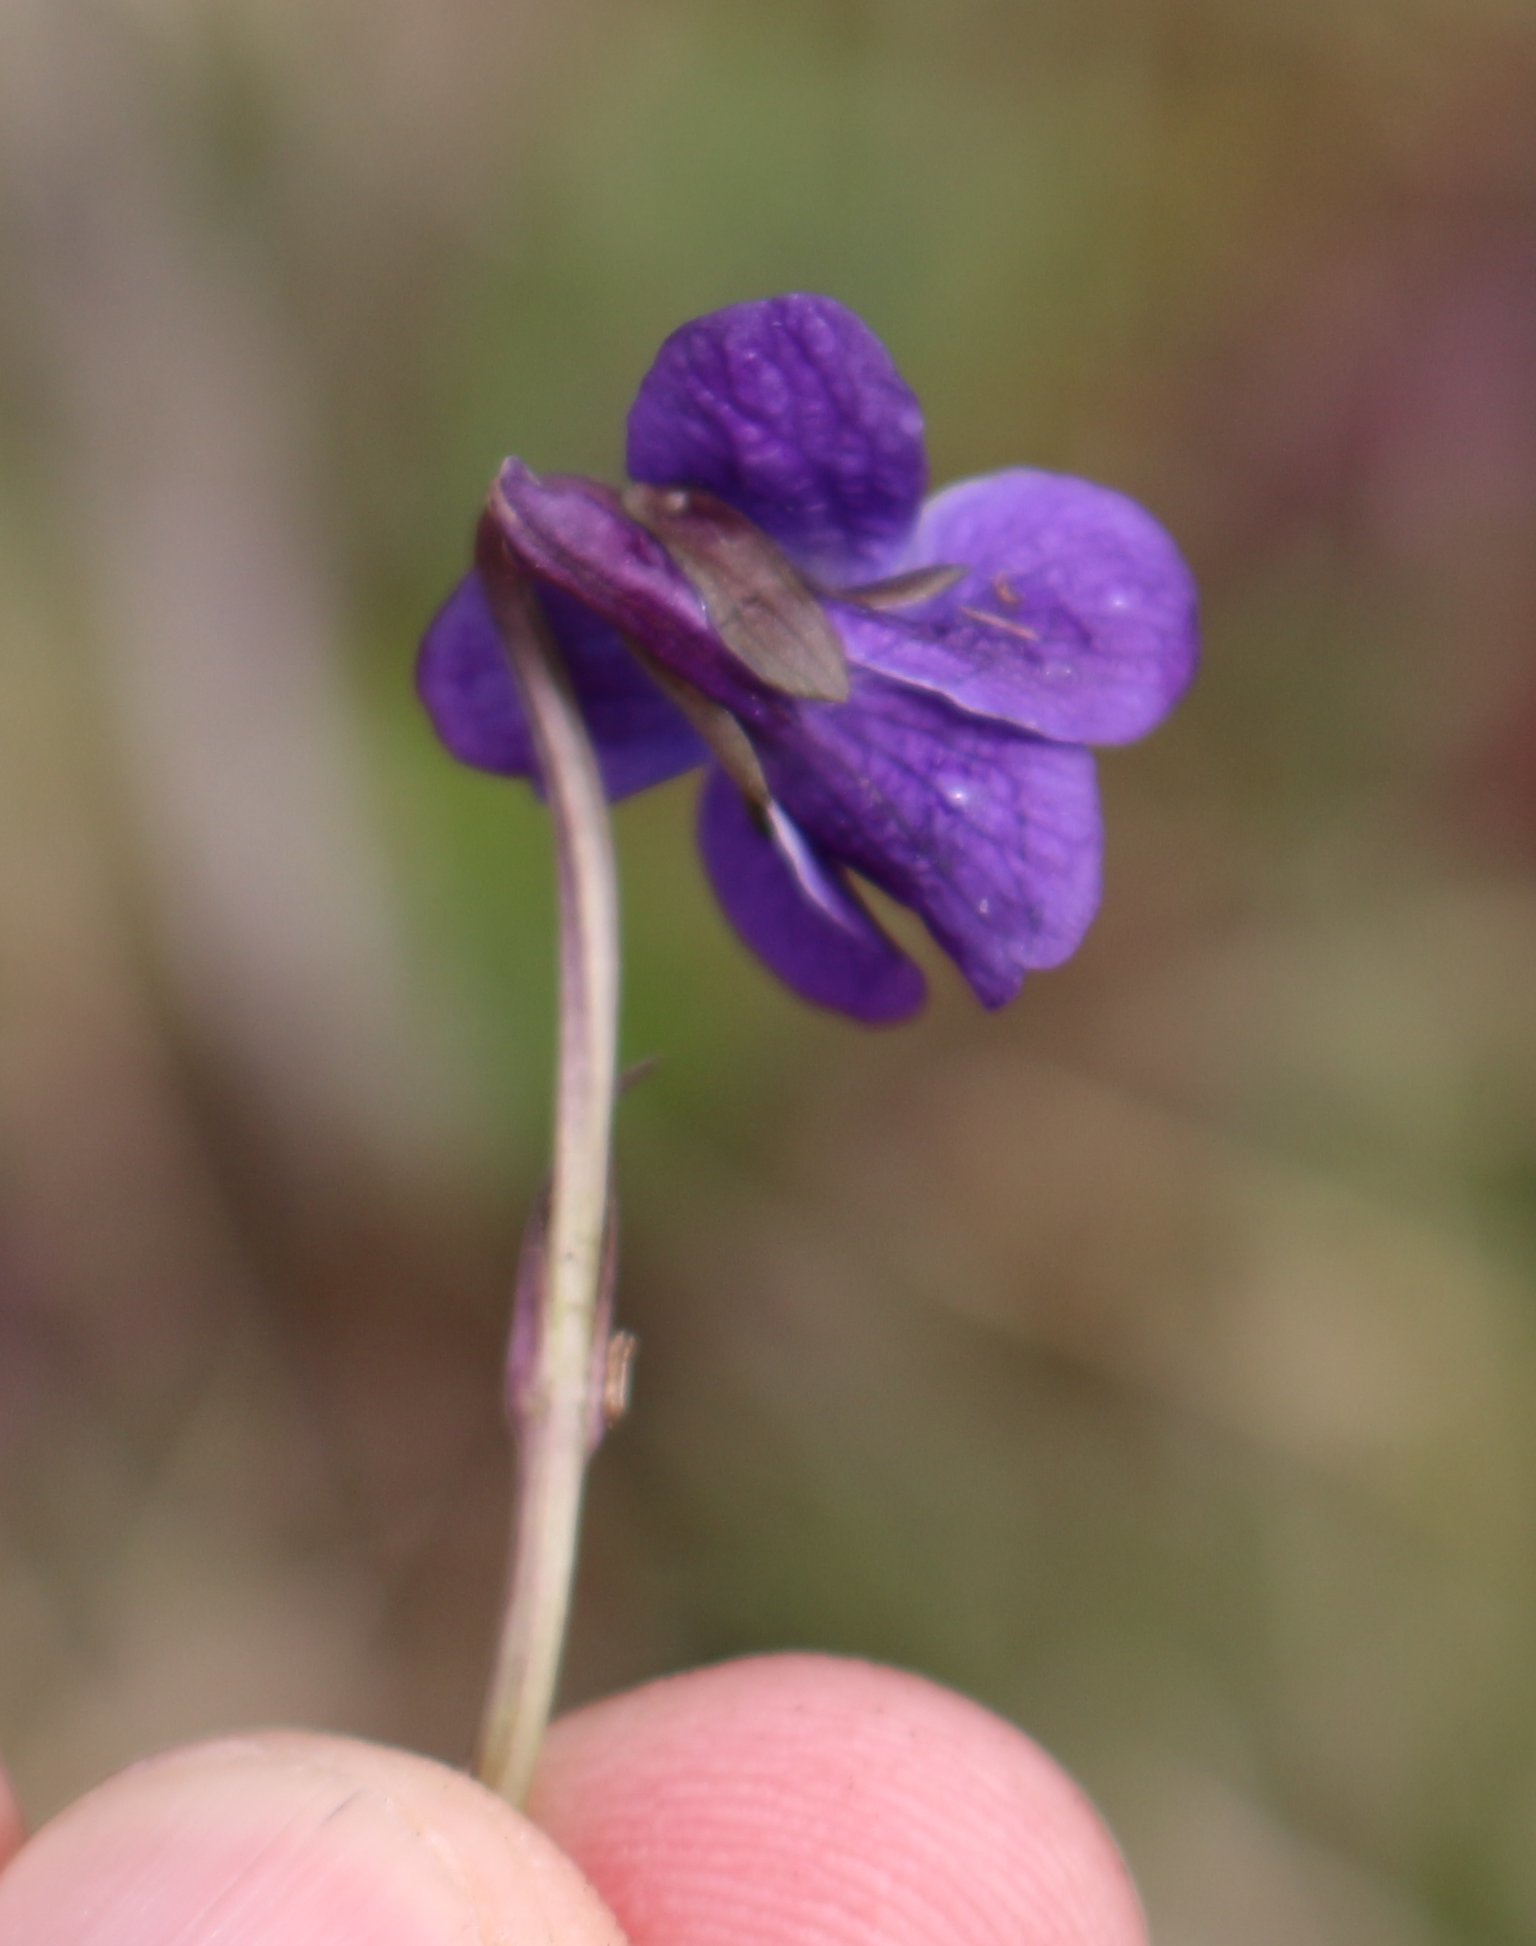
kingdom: Plantae
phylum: Tracheophyta
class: Magnoliopsida
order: Malpighiales
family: Violaceae
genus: Viola
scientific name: Viola odorata
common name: Sweet violet
